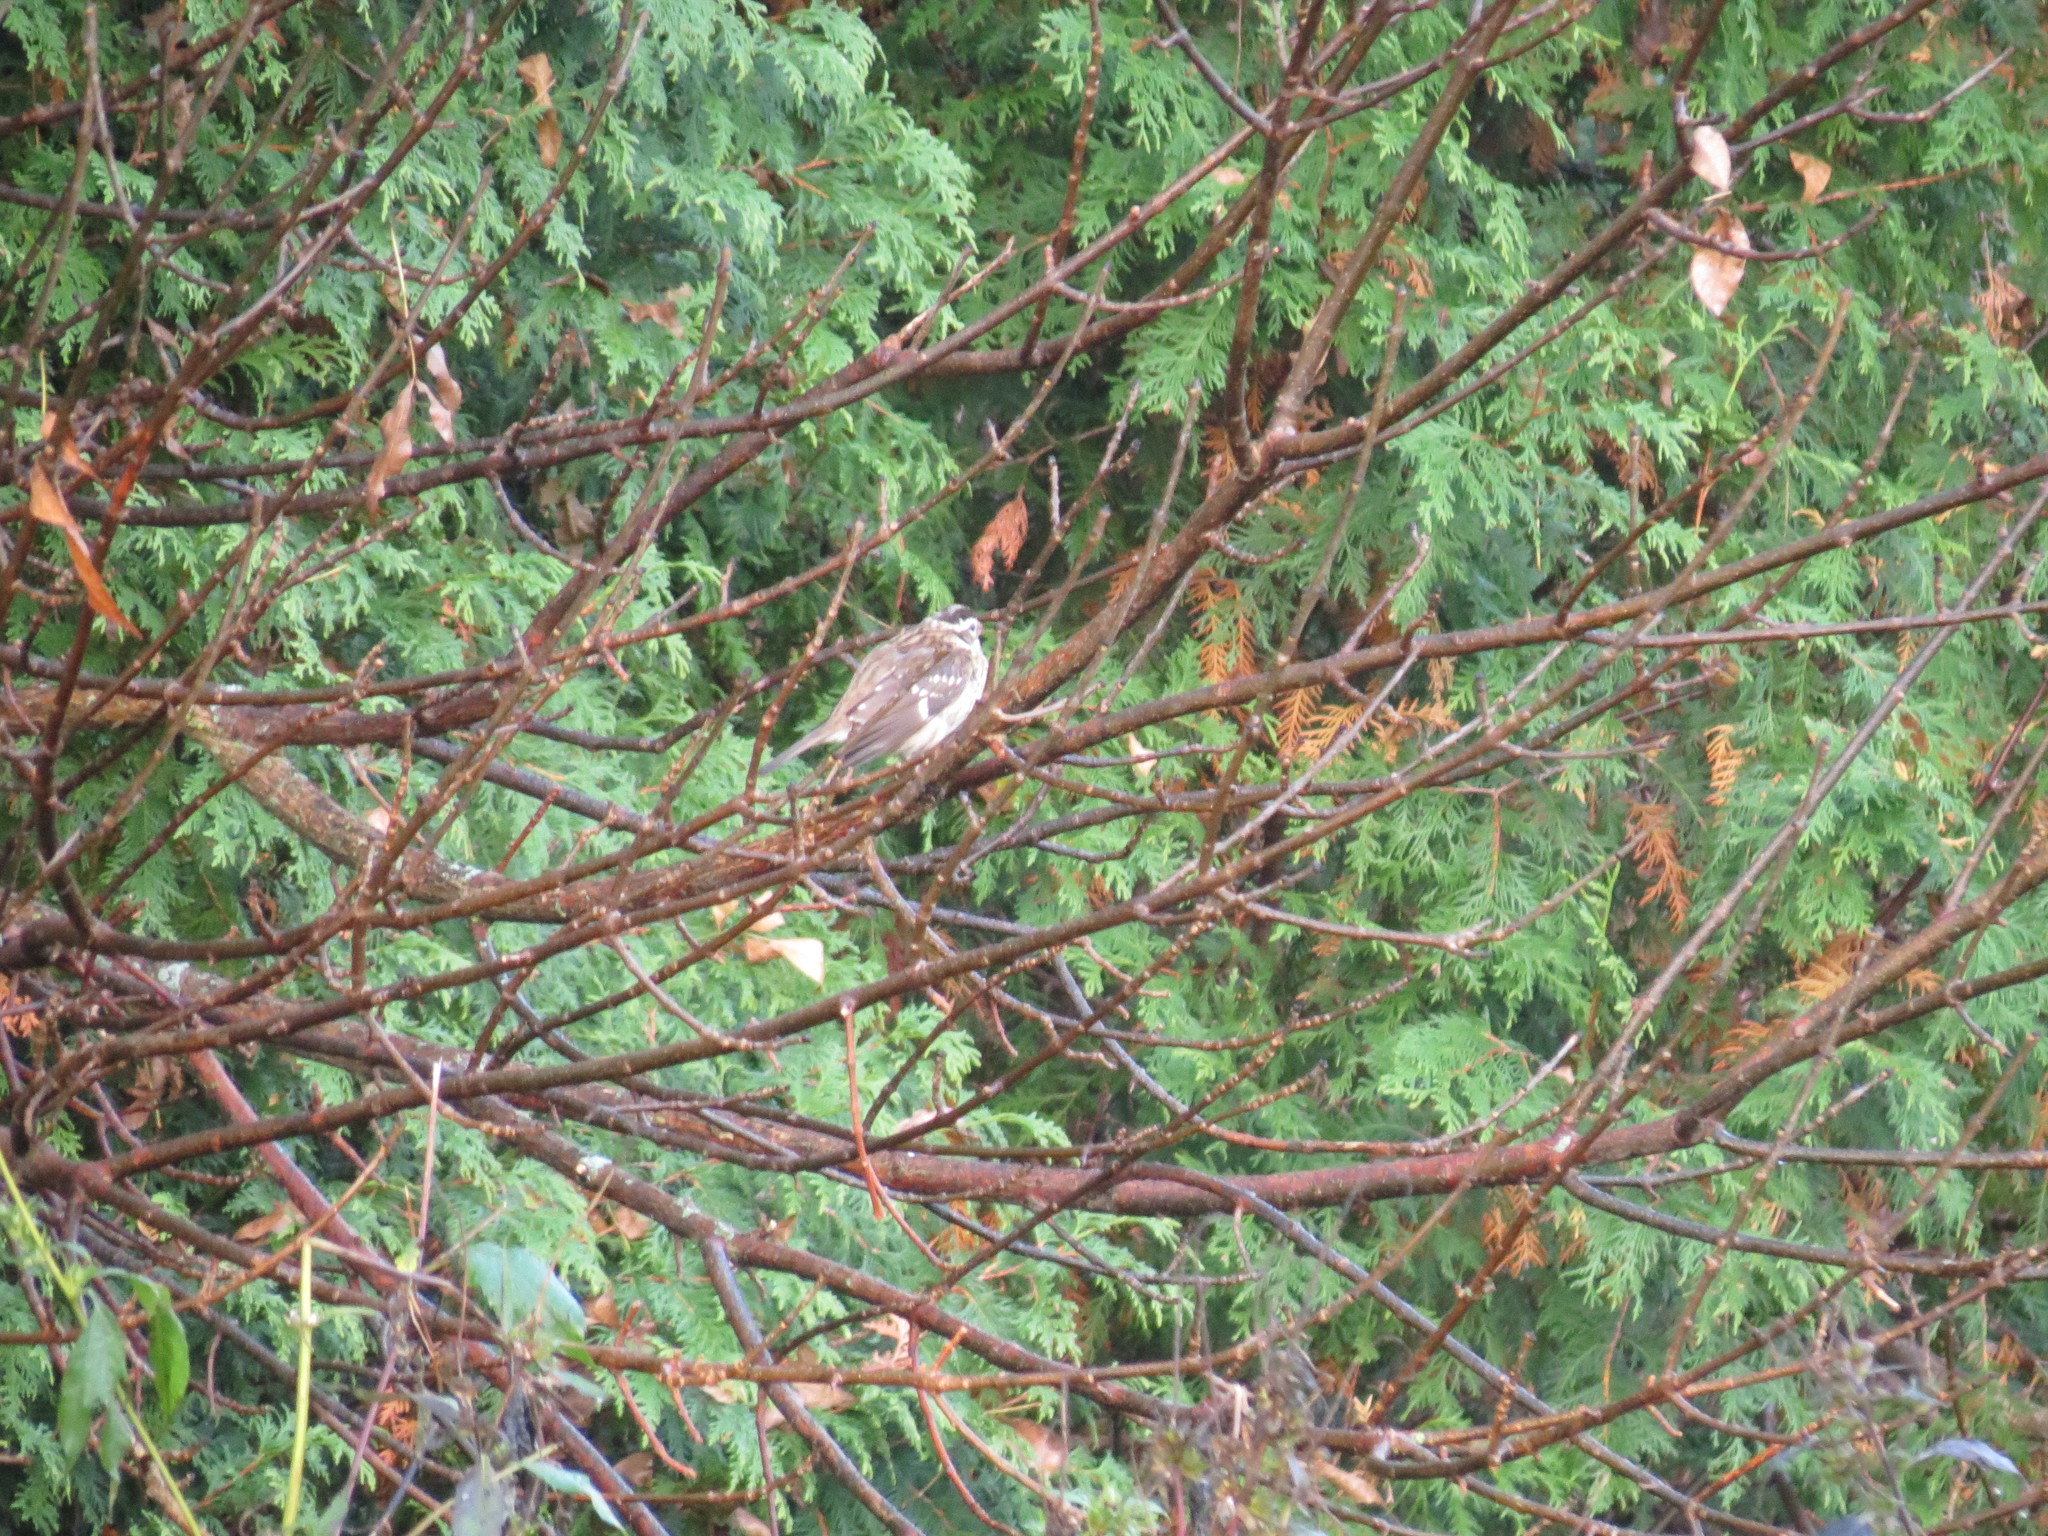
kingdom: Animalia
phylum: Chordata
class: Aves
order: Passeriformes
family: Cardinalidae
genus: Pheucticus
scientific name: Pheucticus ludovicianus
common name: Rose-breasted grosbeak
